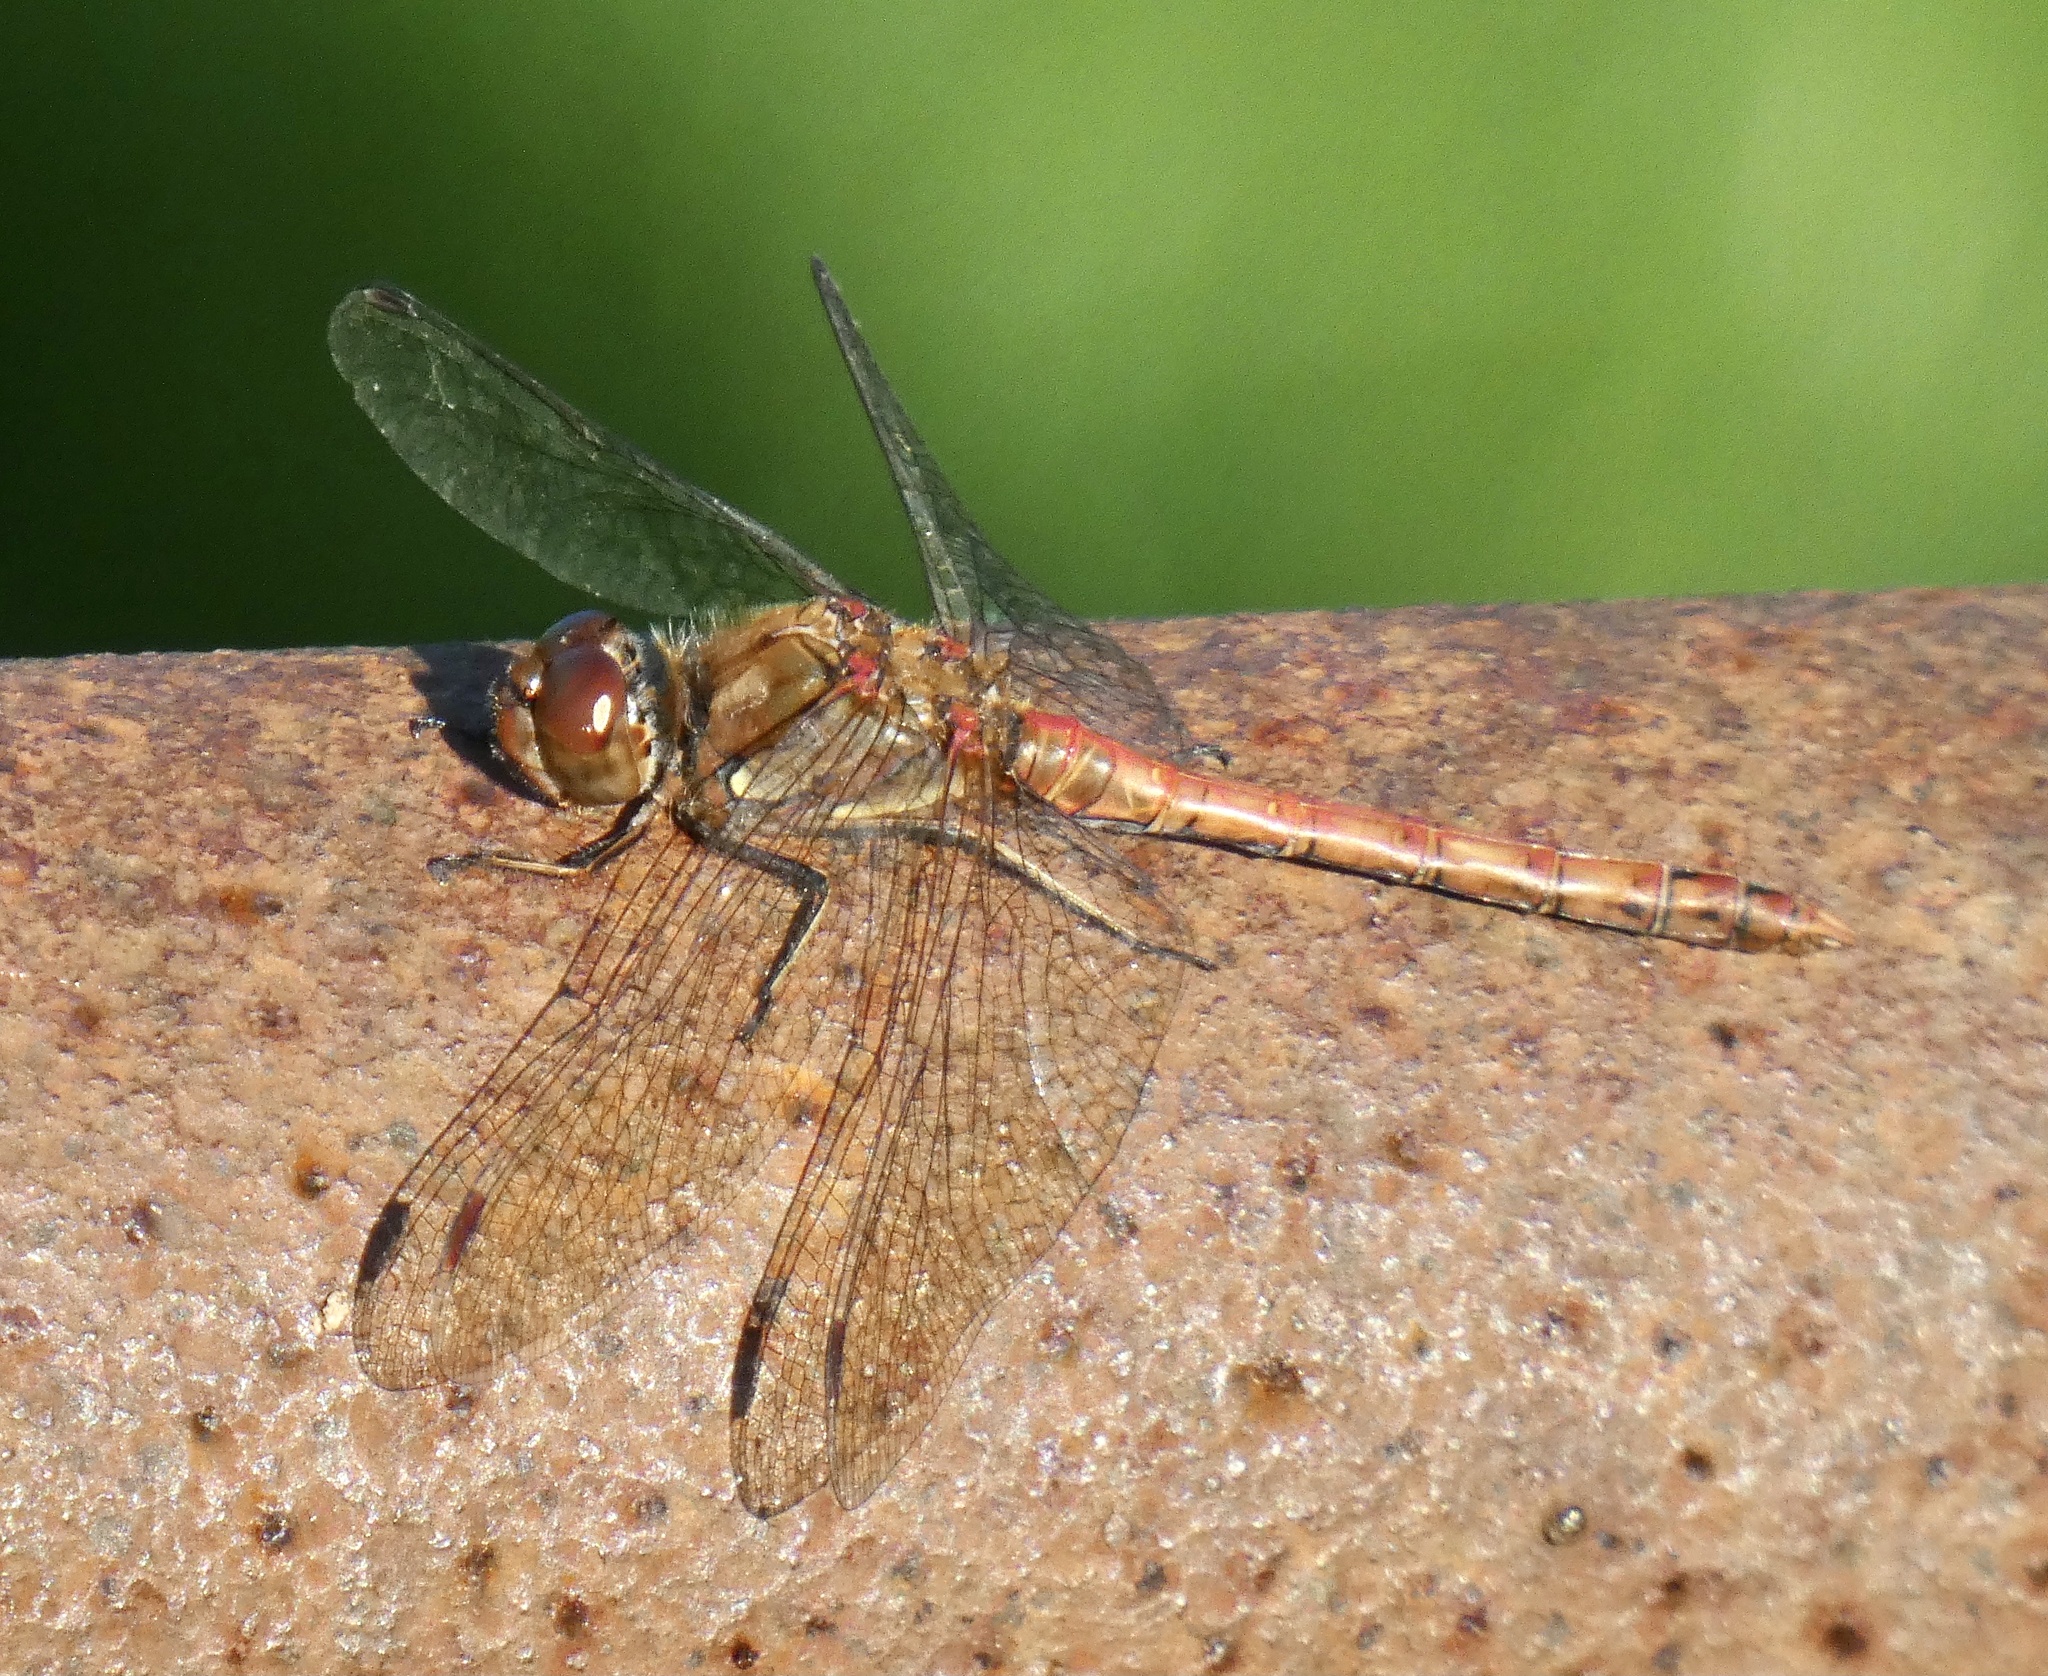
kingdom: Animalia
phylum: Arthropoda
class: Insecta
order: Odonata
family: Libellulidae
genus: Sympetrum
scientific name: Sympetrum striolatum
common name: Common darter
